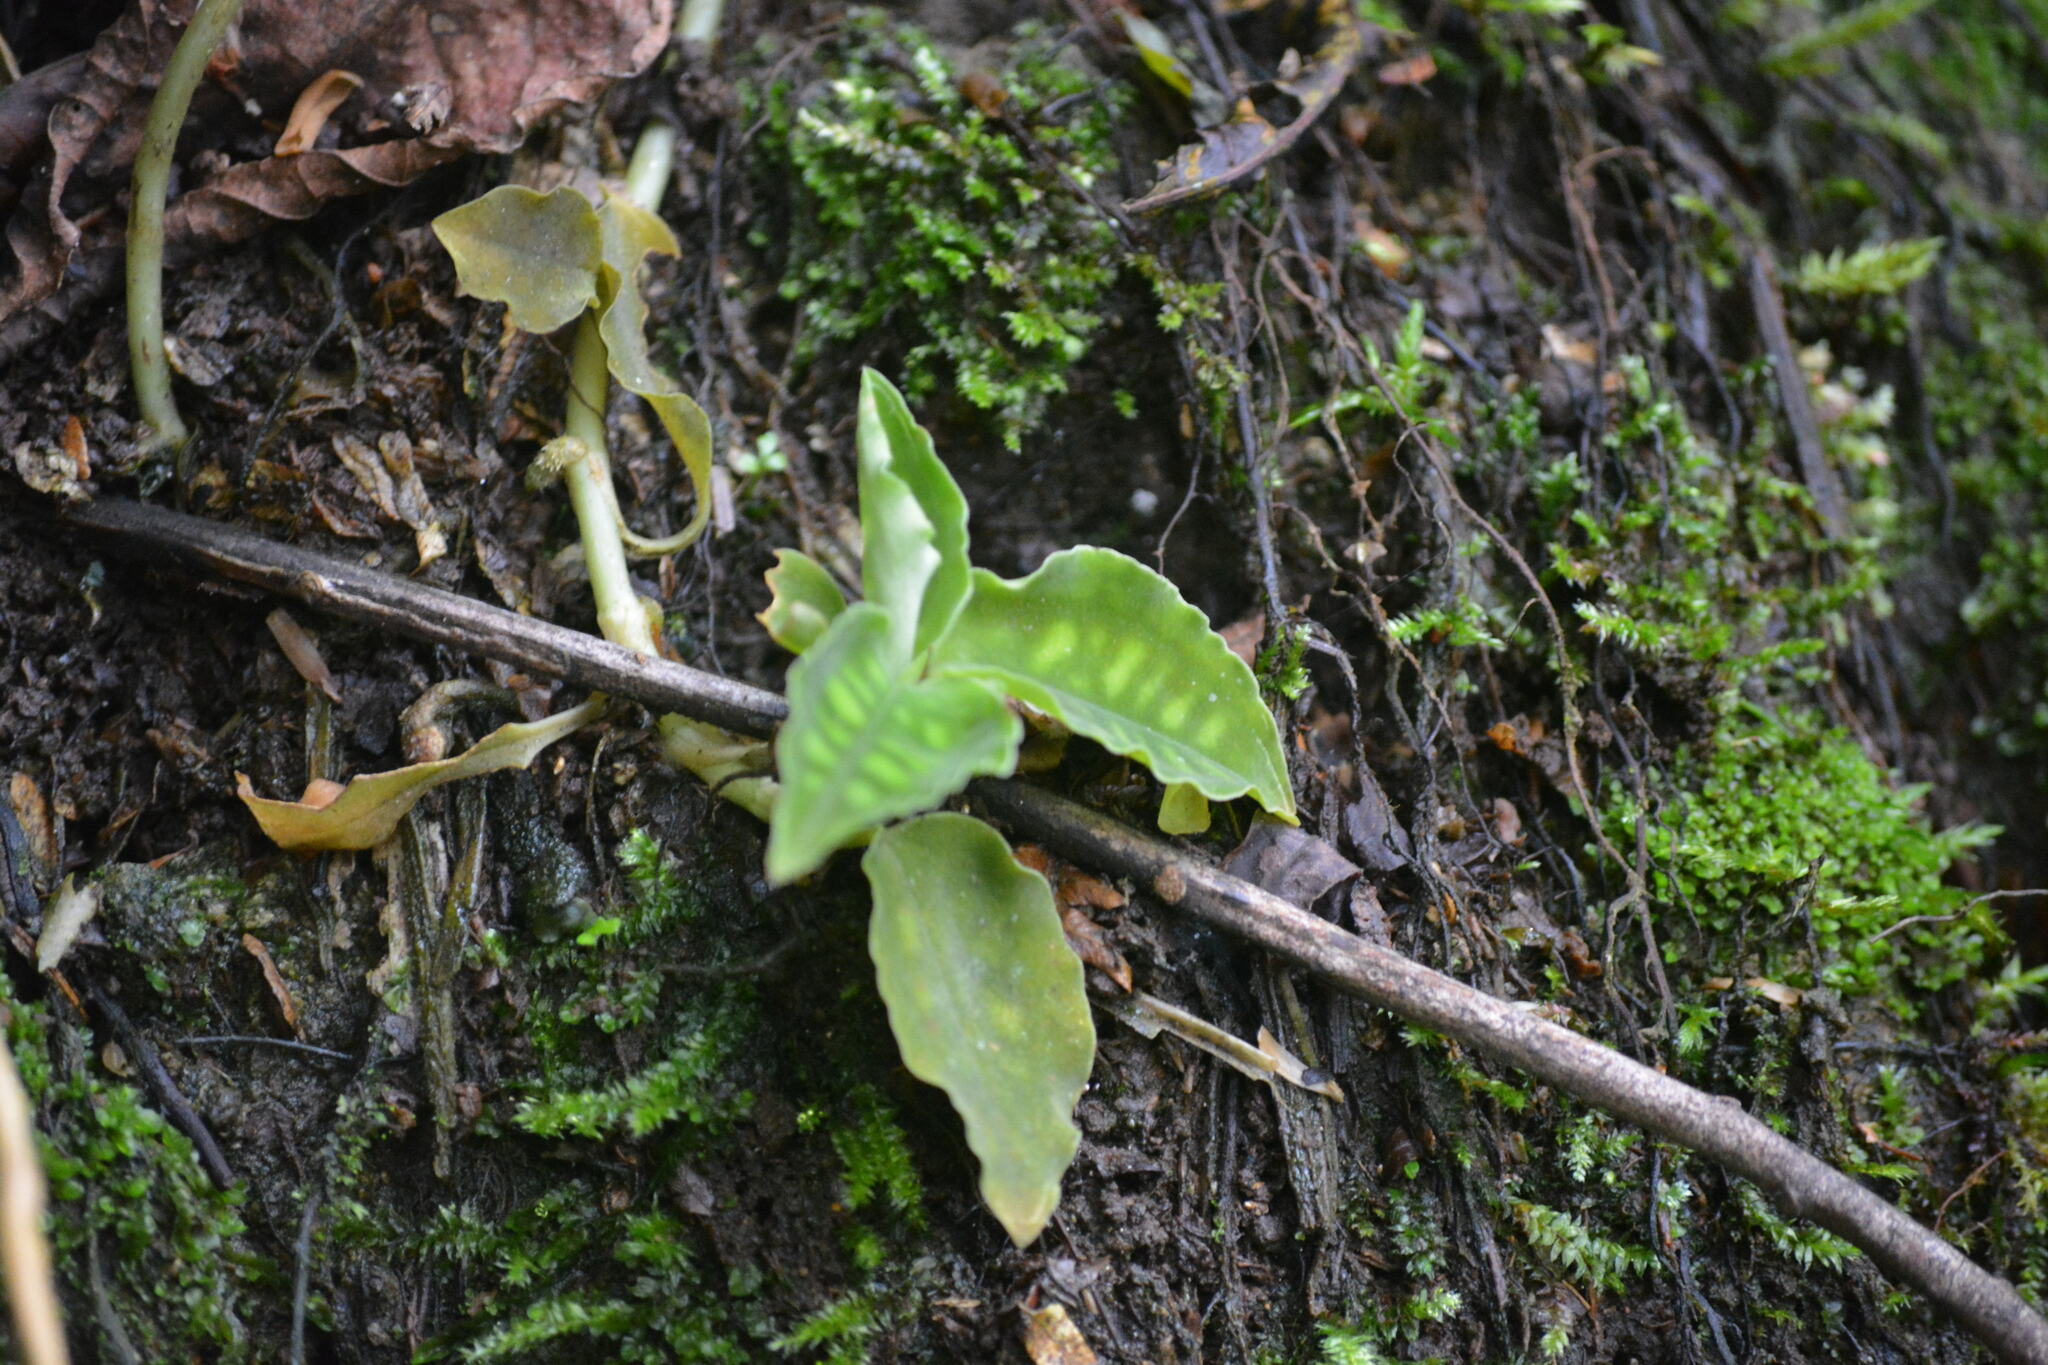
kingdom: Plantae
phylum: Tracheophyta
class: Liliopsida
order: Asparagales
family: Orchidaceae
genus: Cystorchis
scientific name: Cystorchis variegata
